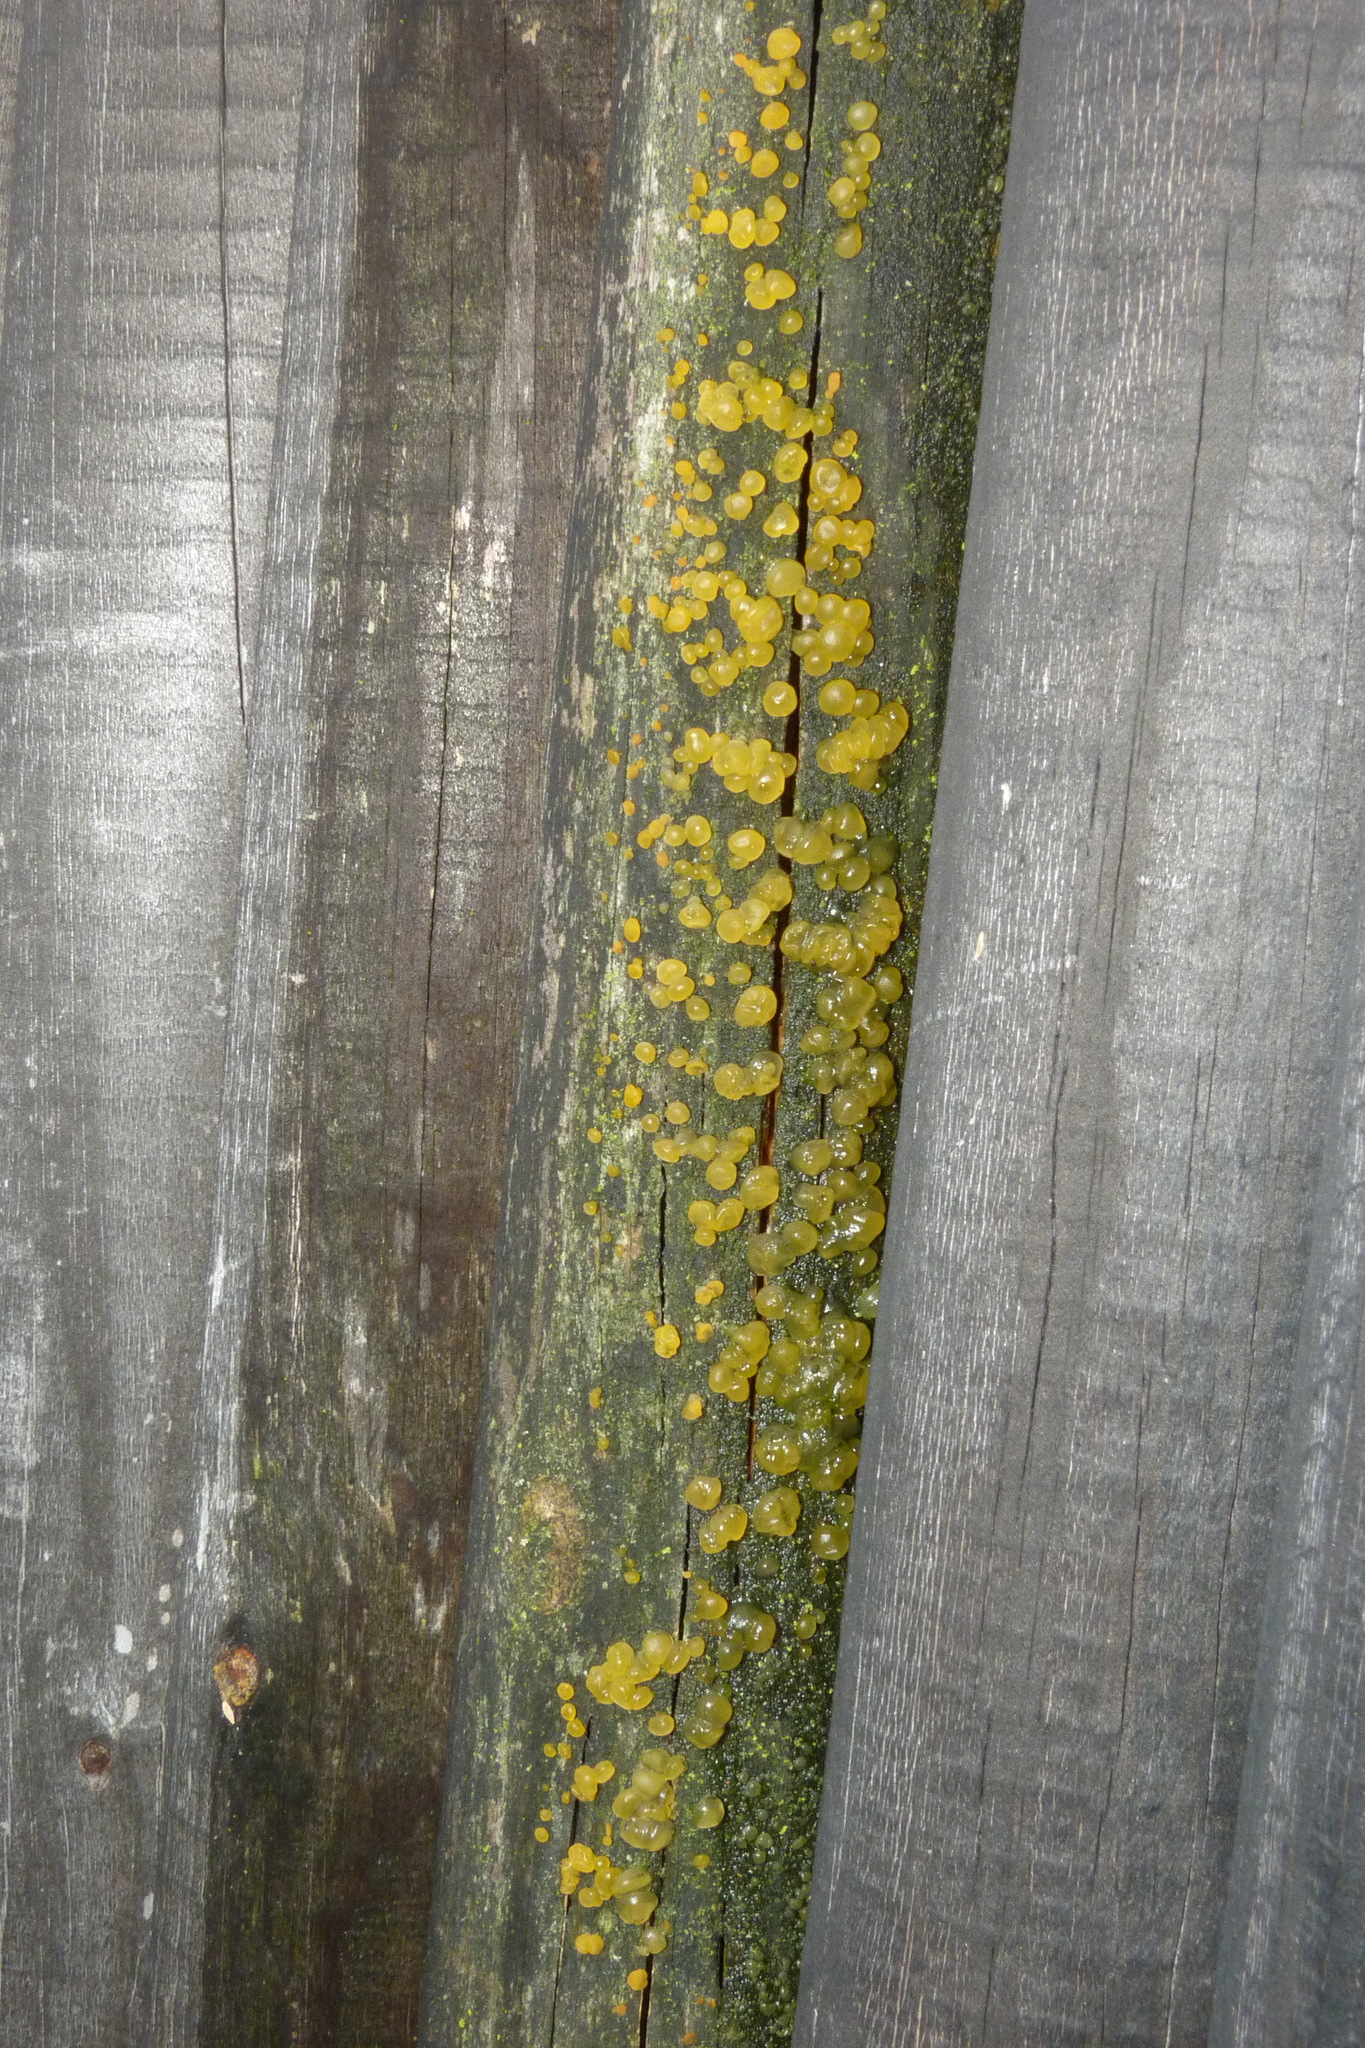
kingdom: Fungi
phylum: Basidiomycota
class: Dacrymycetes
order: Dacrymycetales
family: Dacrymycetaceae
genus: Dacrymyces
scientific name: Dacrymyces stillatus
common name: Common jelly spot
